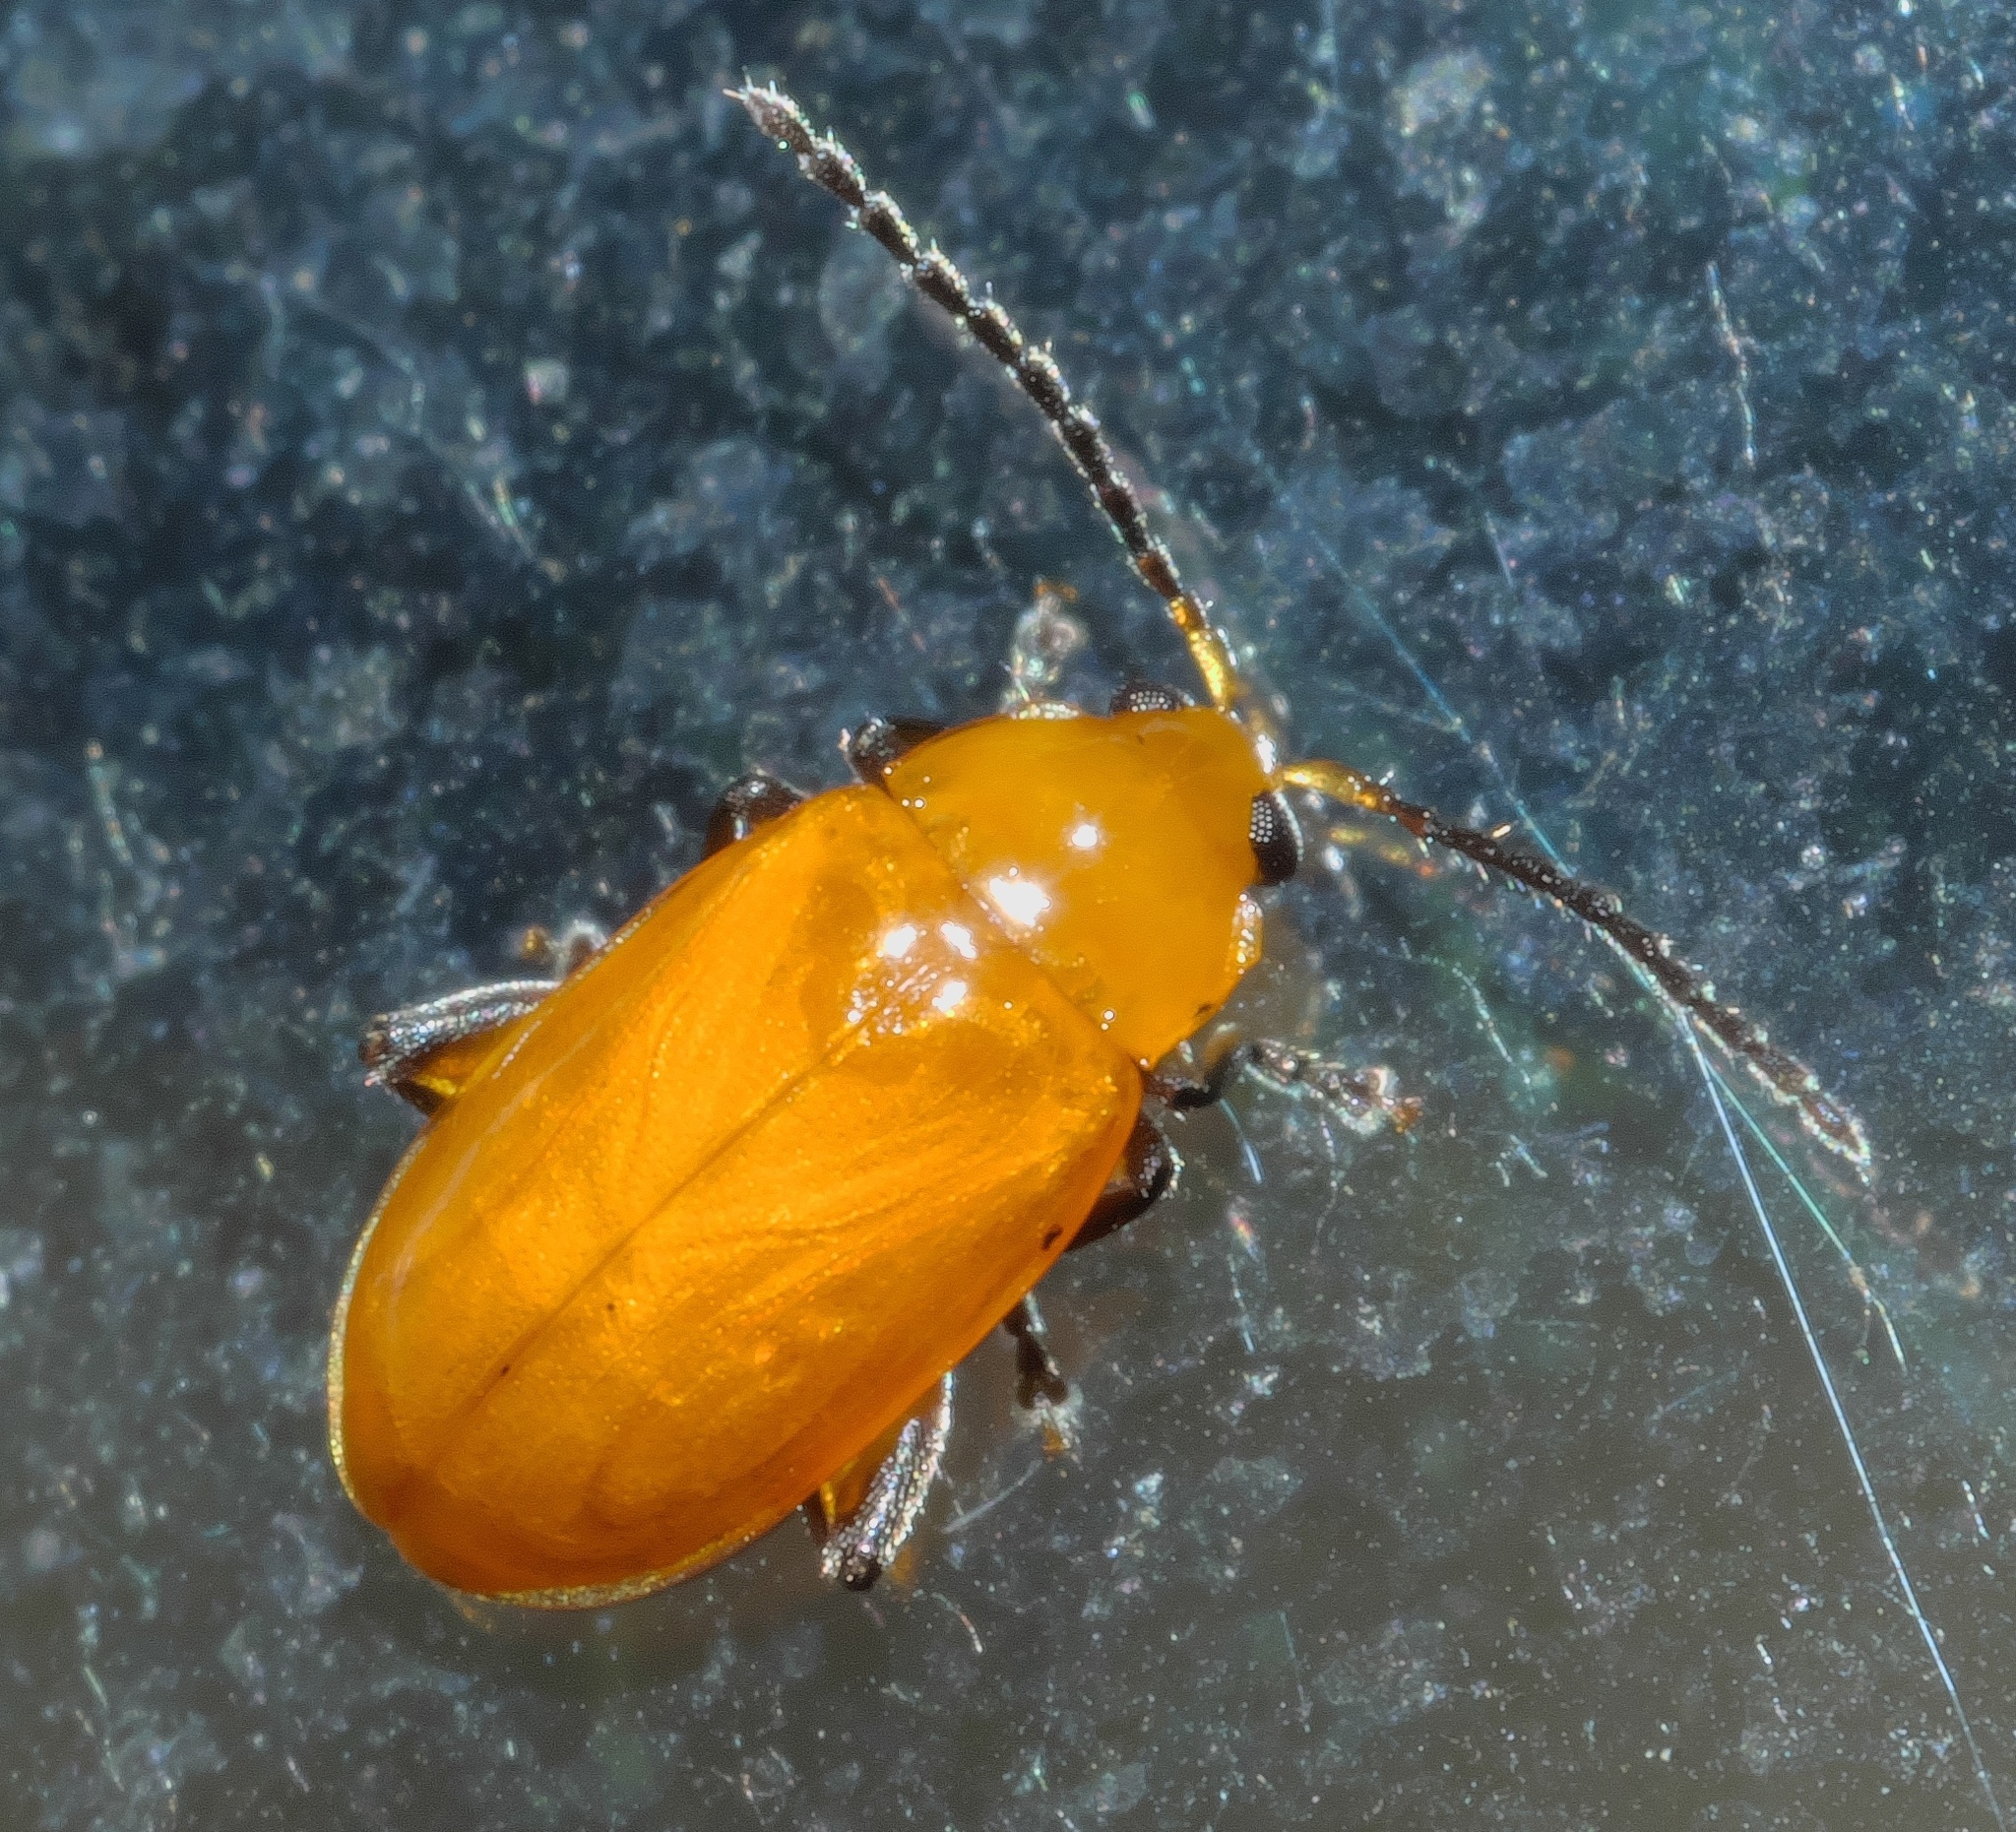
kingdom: Animalia
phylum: Arthropoda
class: Insecta
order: Coleoptera
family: Chrysomelidae
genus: Parchicola
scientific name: Parchicola tibialis
